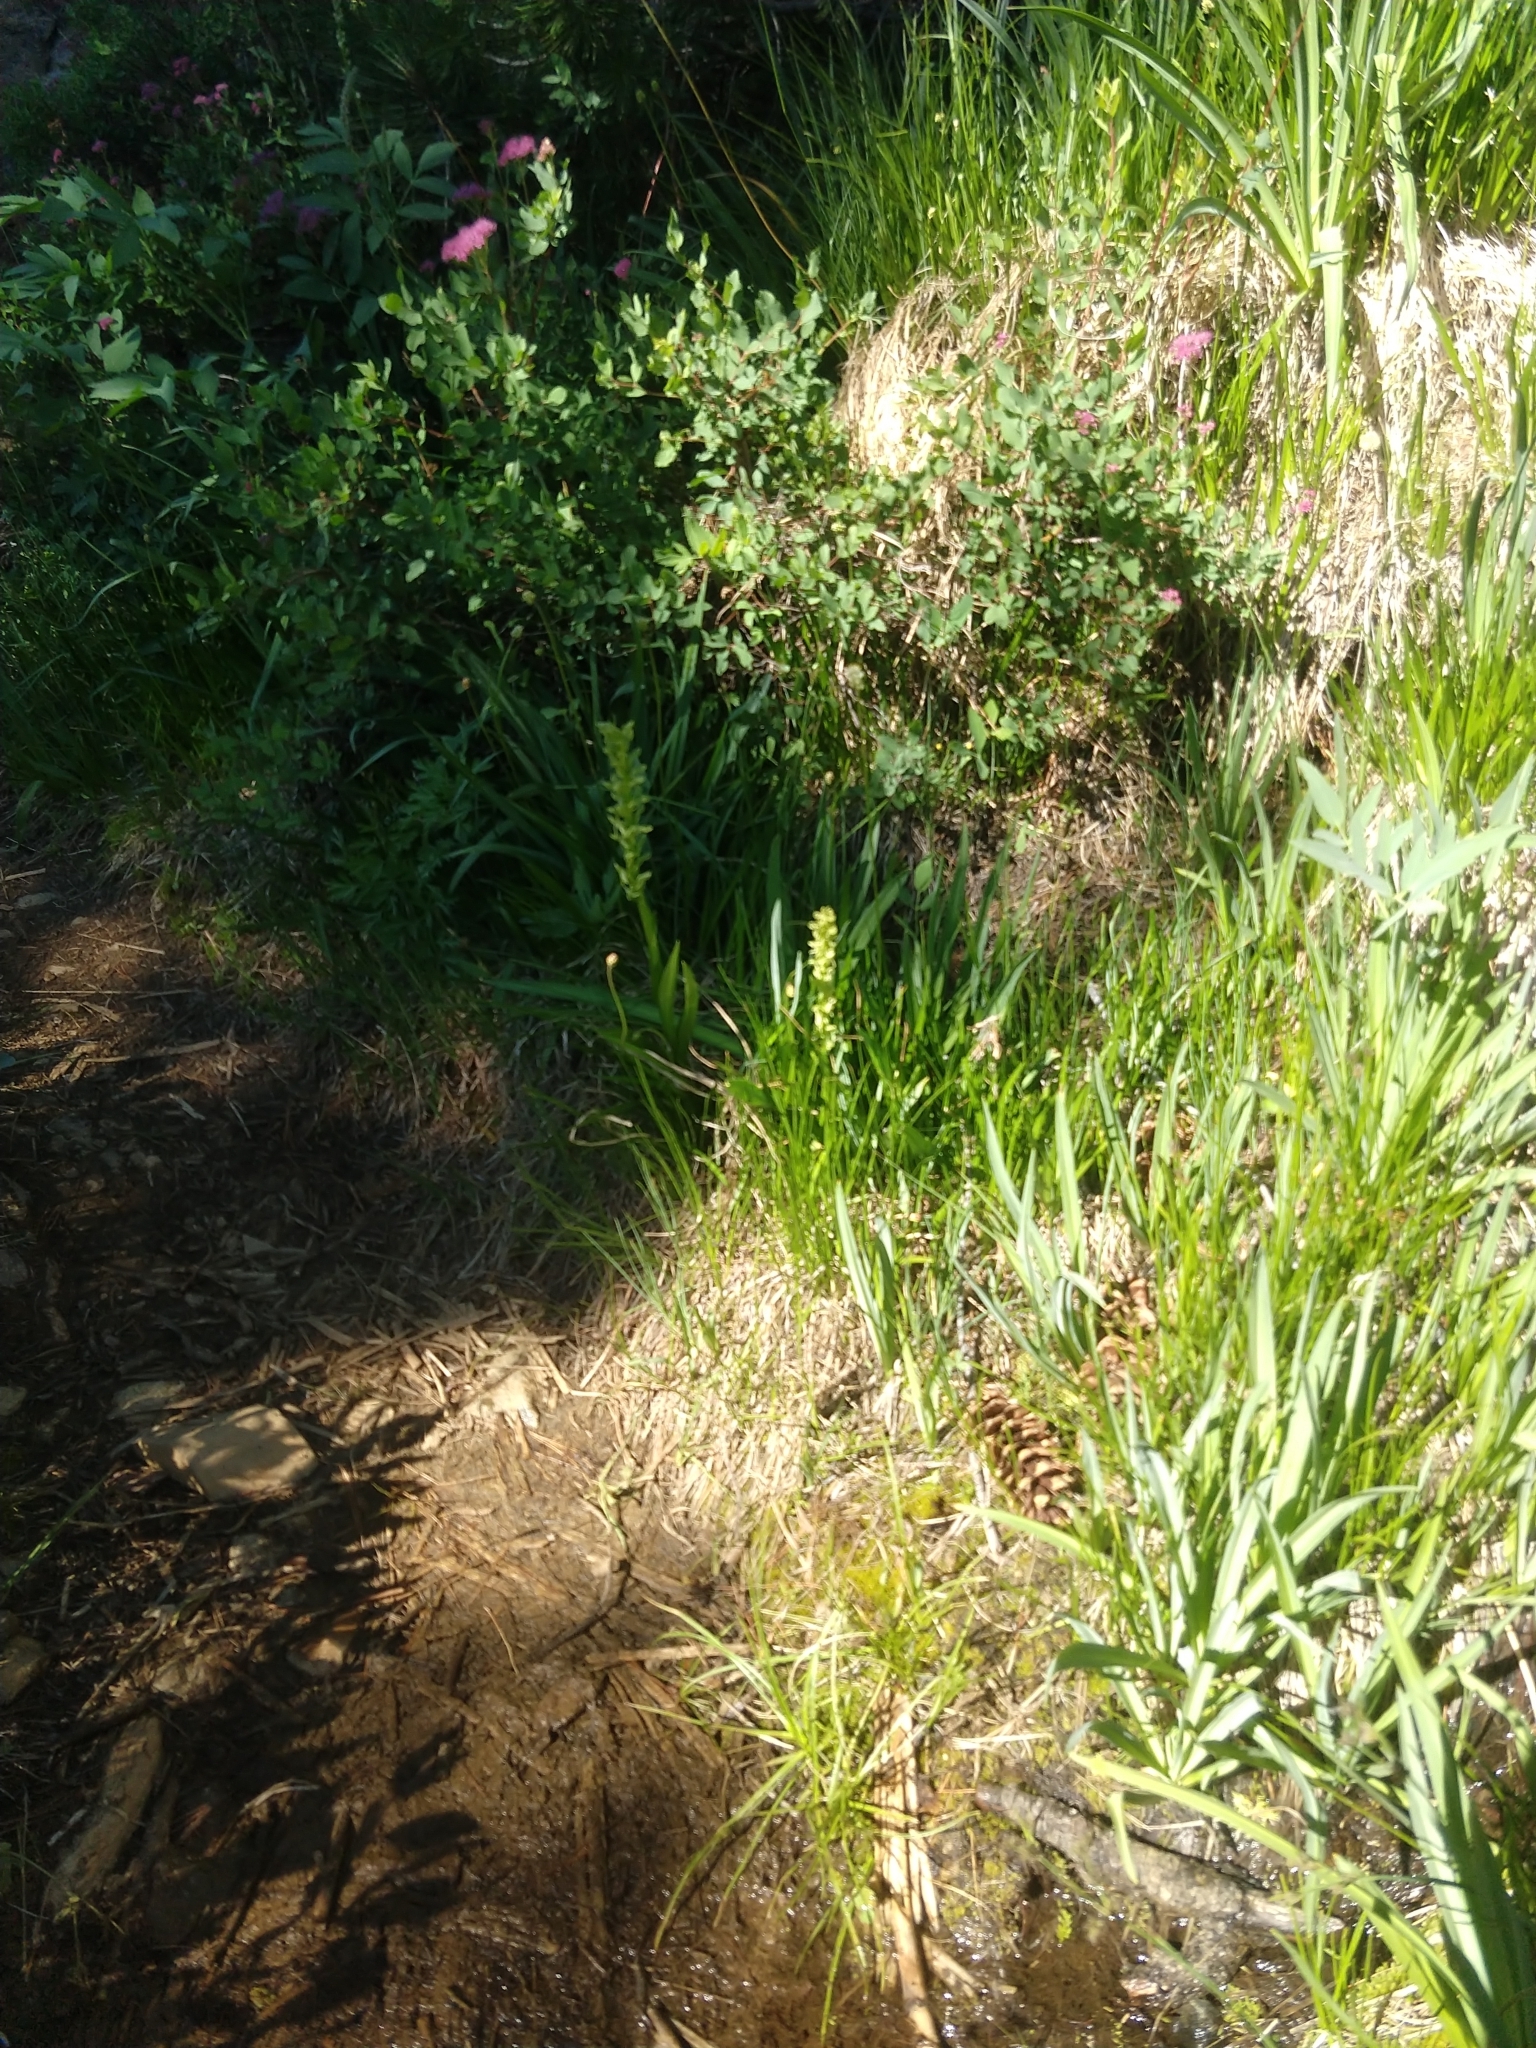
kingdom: Plantae
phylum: Tracheophyta
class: Liliopsida
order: Asparagales
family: Orchidaceae
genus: Platanthera
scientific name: Platanthera sparsiflora
